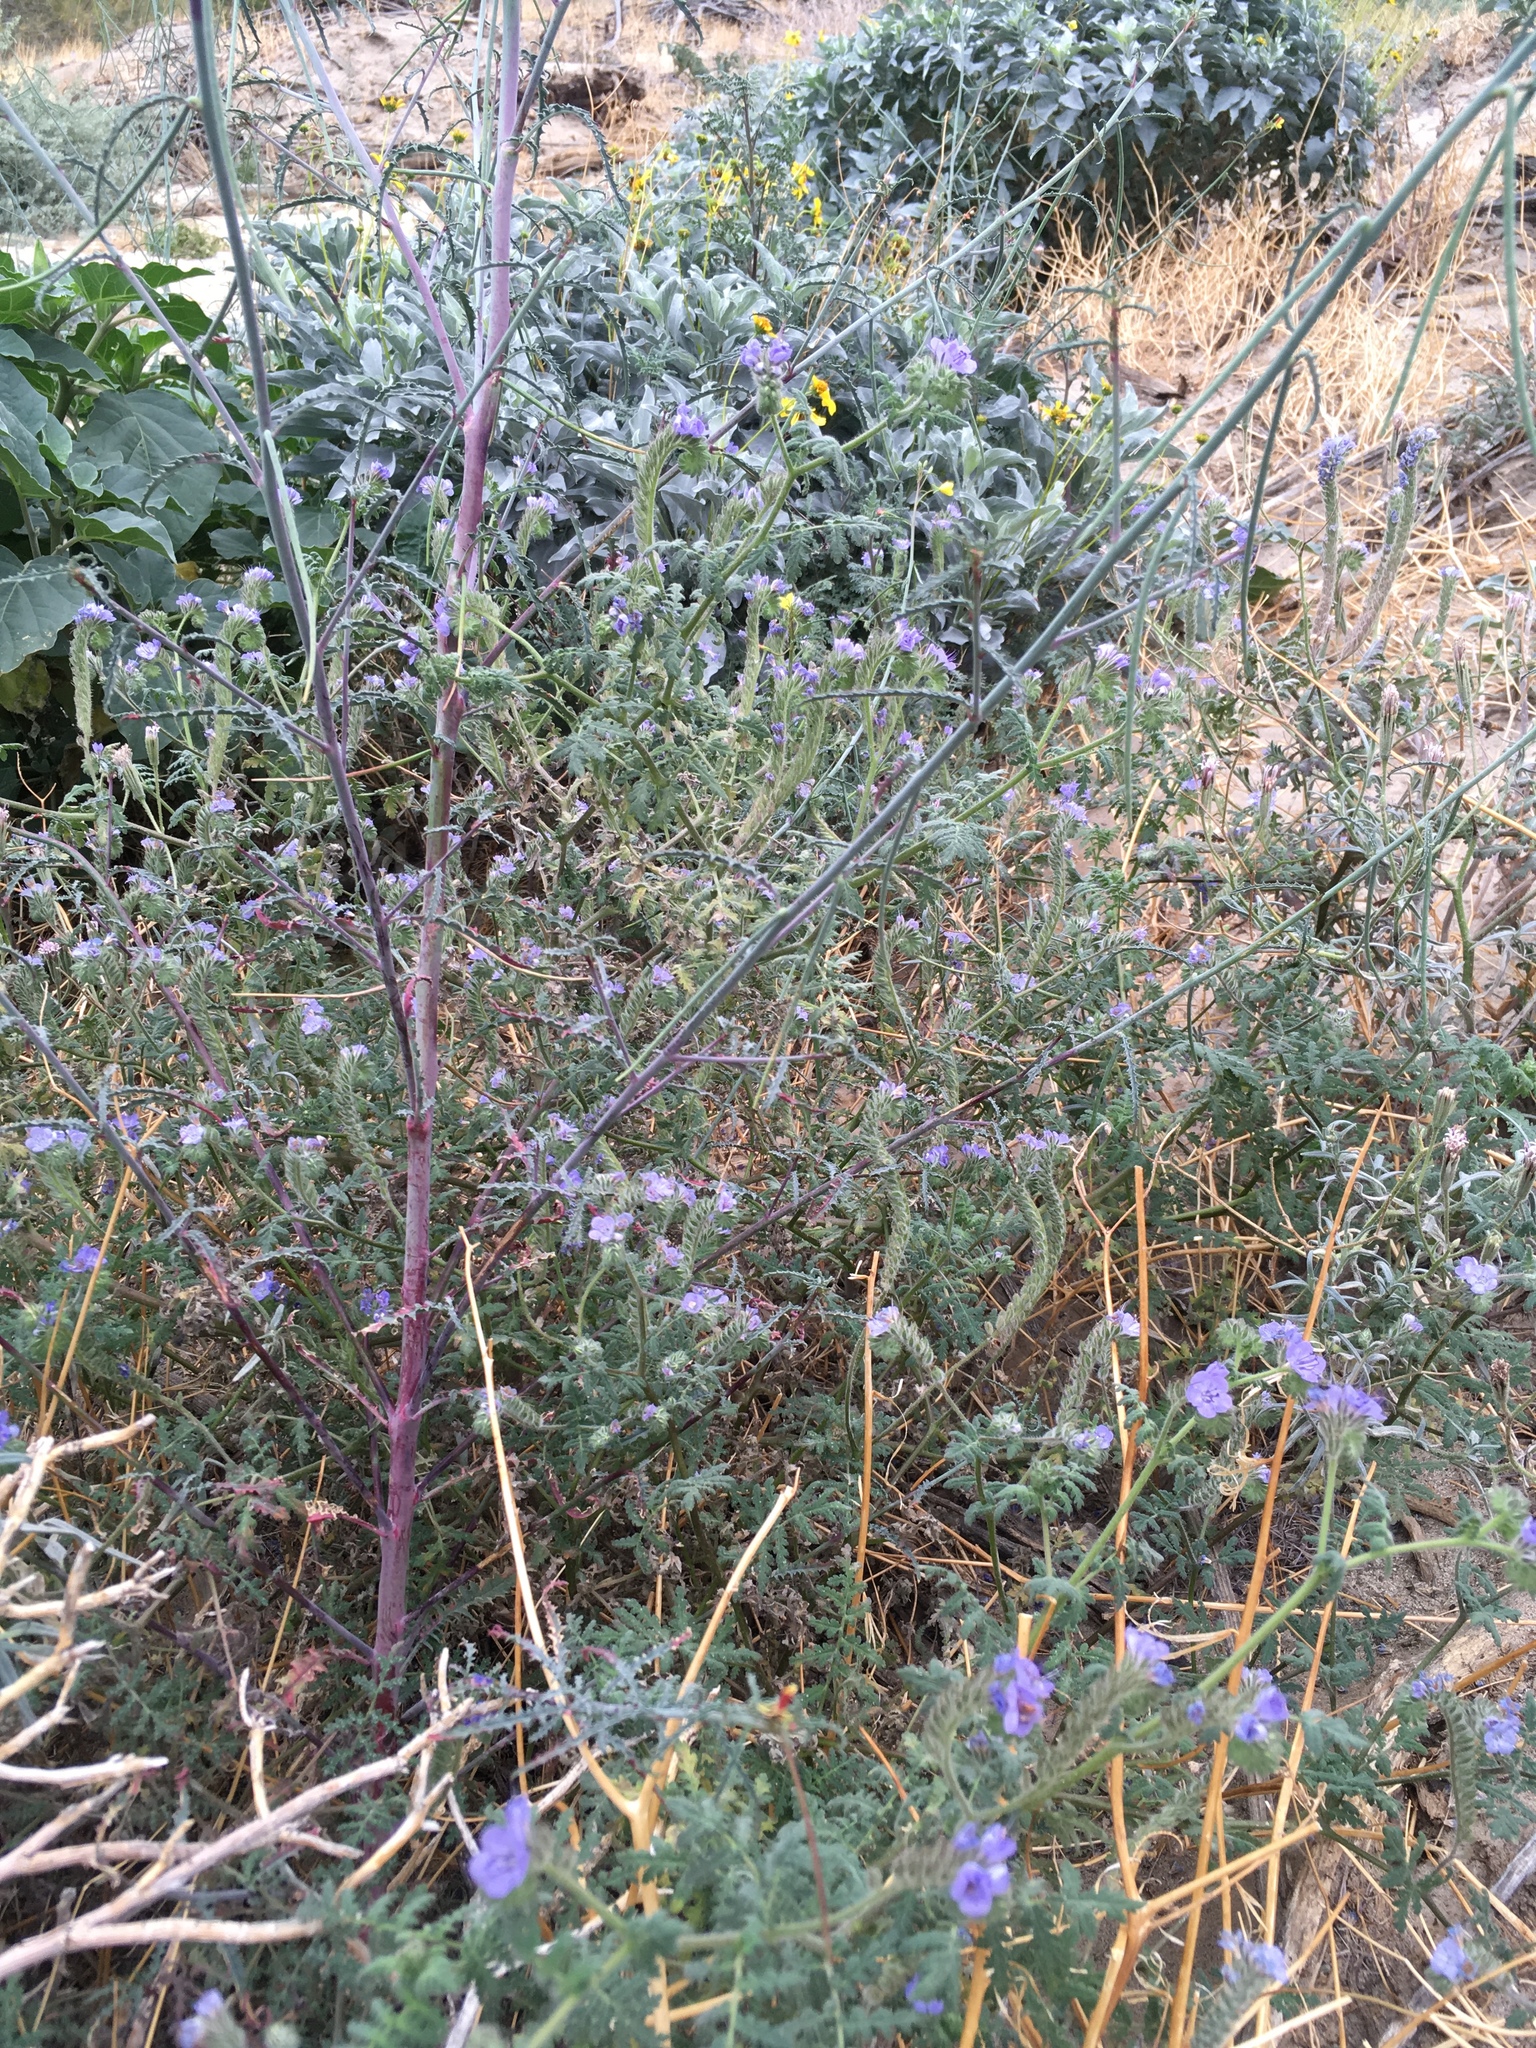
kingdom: Plantae
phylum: Tracheophyta
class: Magnoliopsida
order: Boraginales
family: Hydrophyllaceae
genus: Phacelia
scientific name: Phacelia distans
